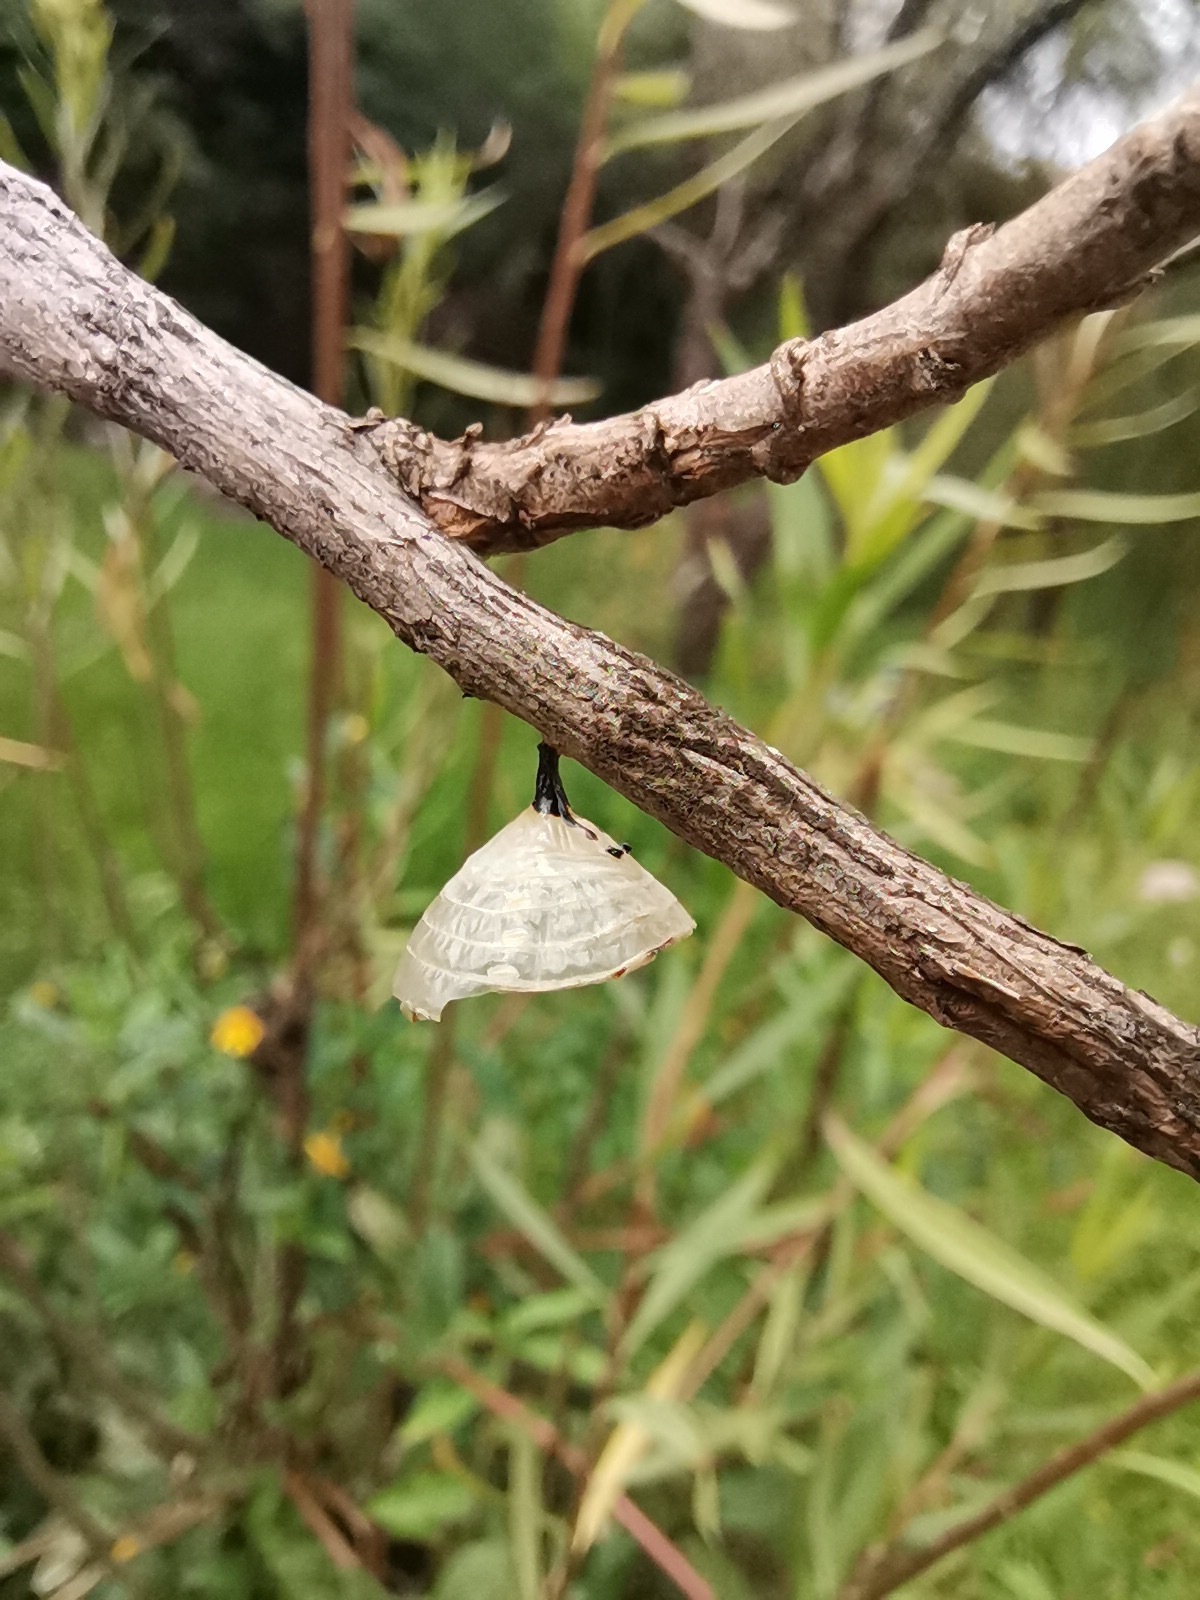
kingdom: Animalia
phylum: Arthropoda
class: Insecta
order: Lepidoptera
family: Nymphalidae
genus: Danaus
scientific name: Danaus plexippus
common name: Monarch
